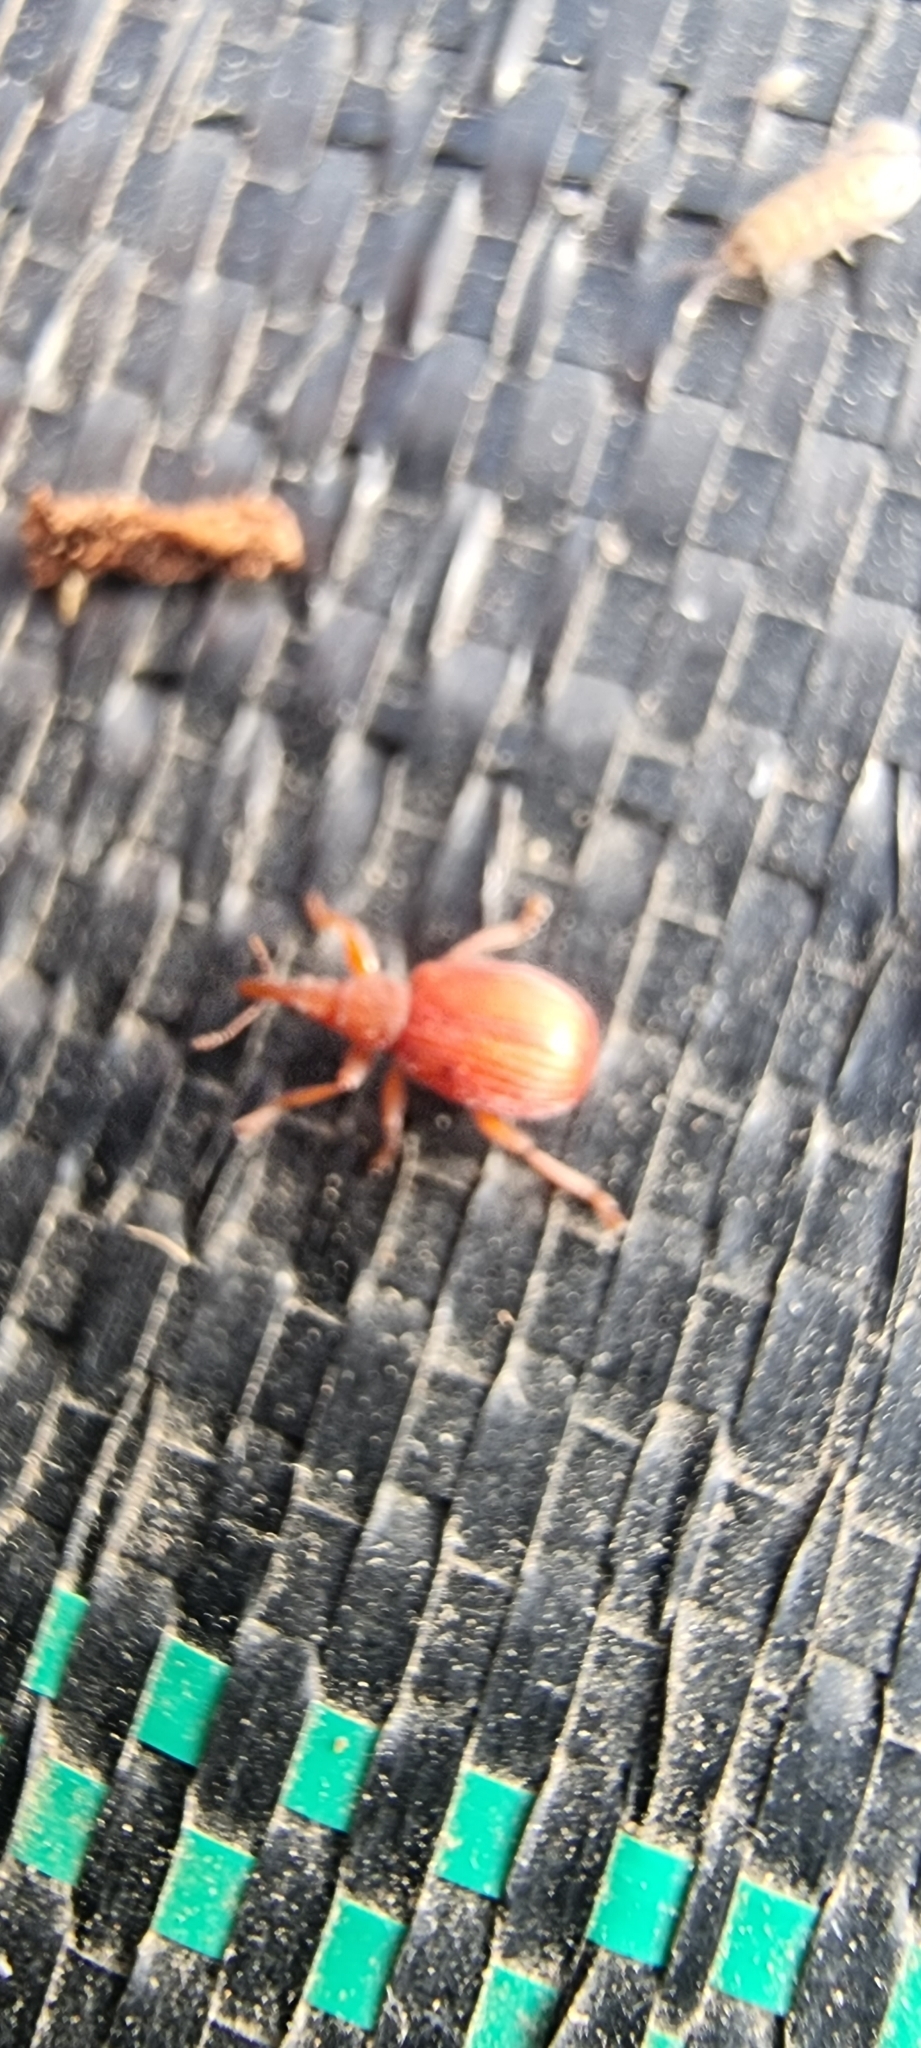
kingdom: Animalia
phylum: Arthropoda
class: Insecta
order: Coleoptera
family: Apionidae
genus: Apion
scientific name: Apion frumentarium
